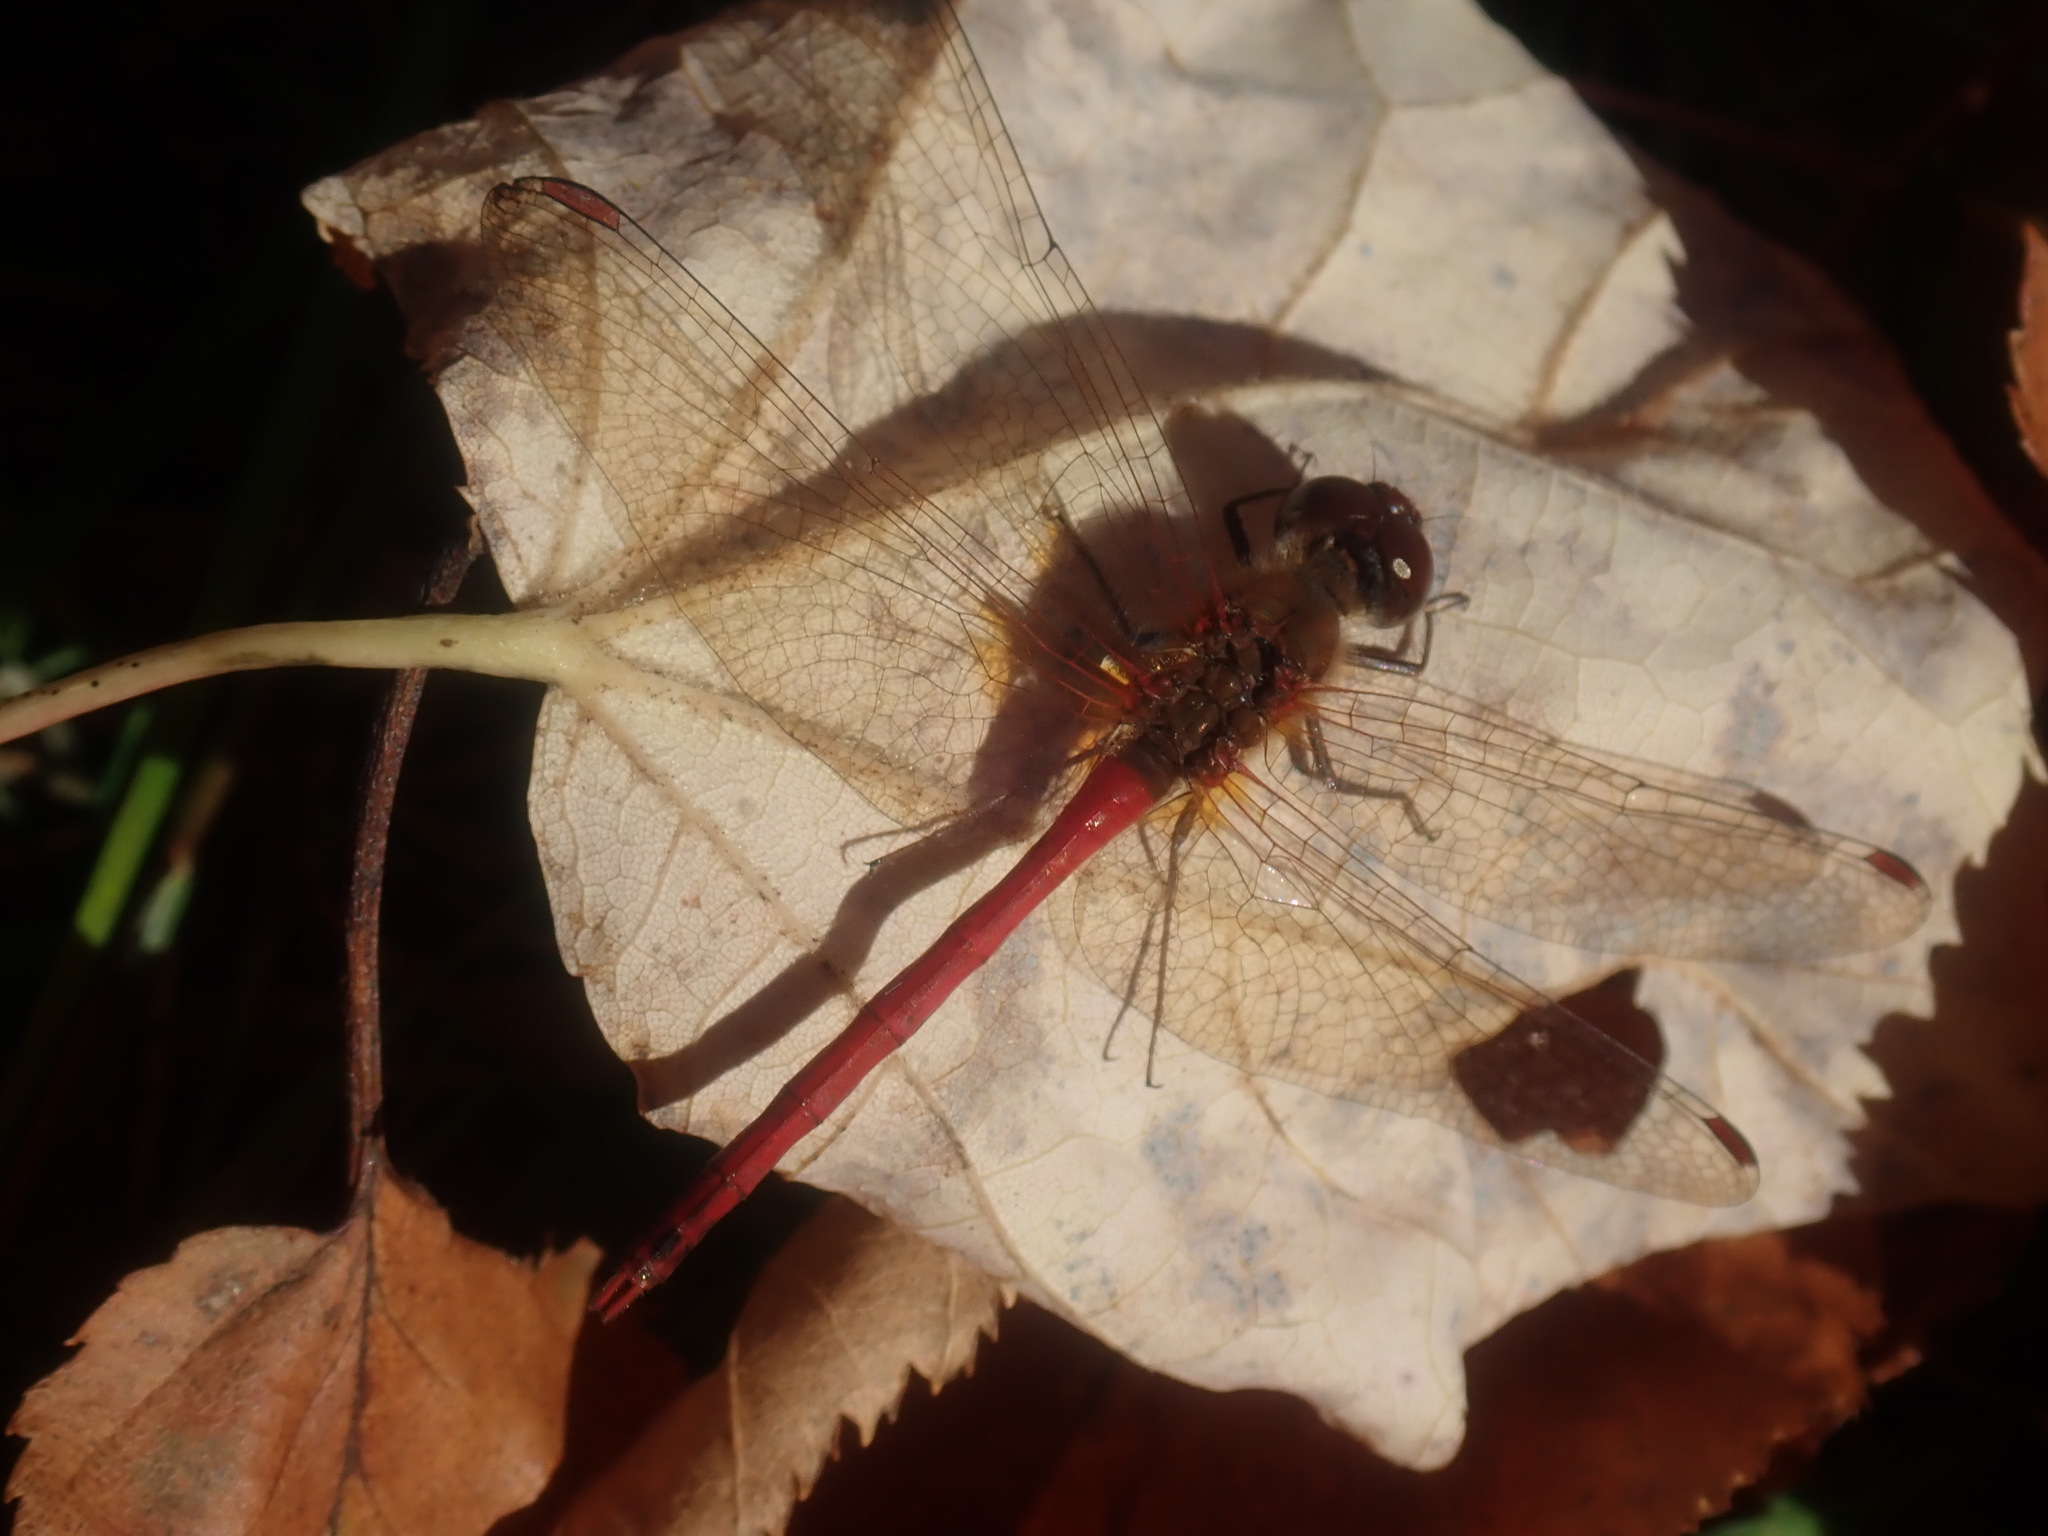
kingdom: Animalia
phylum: Arthropoda
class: Insecta
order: Odonata
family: Libellulidae
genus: Sympetrum
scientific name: Sympetrum vicinum
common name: Autumn meadowhawk
